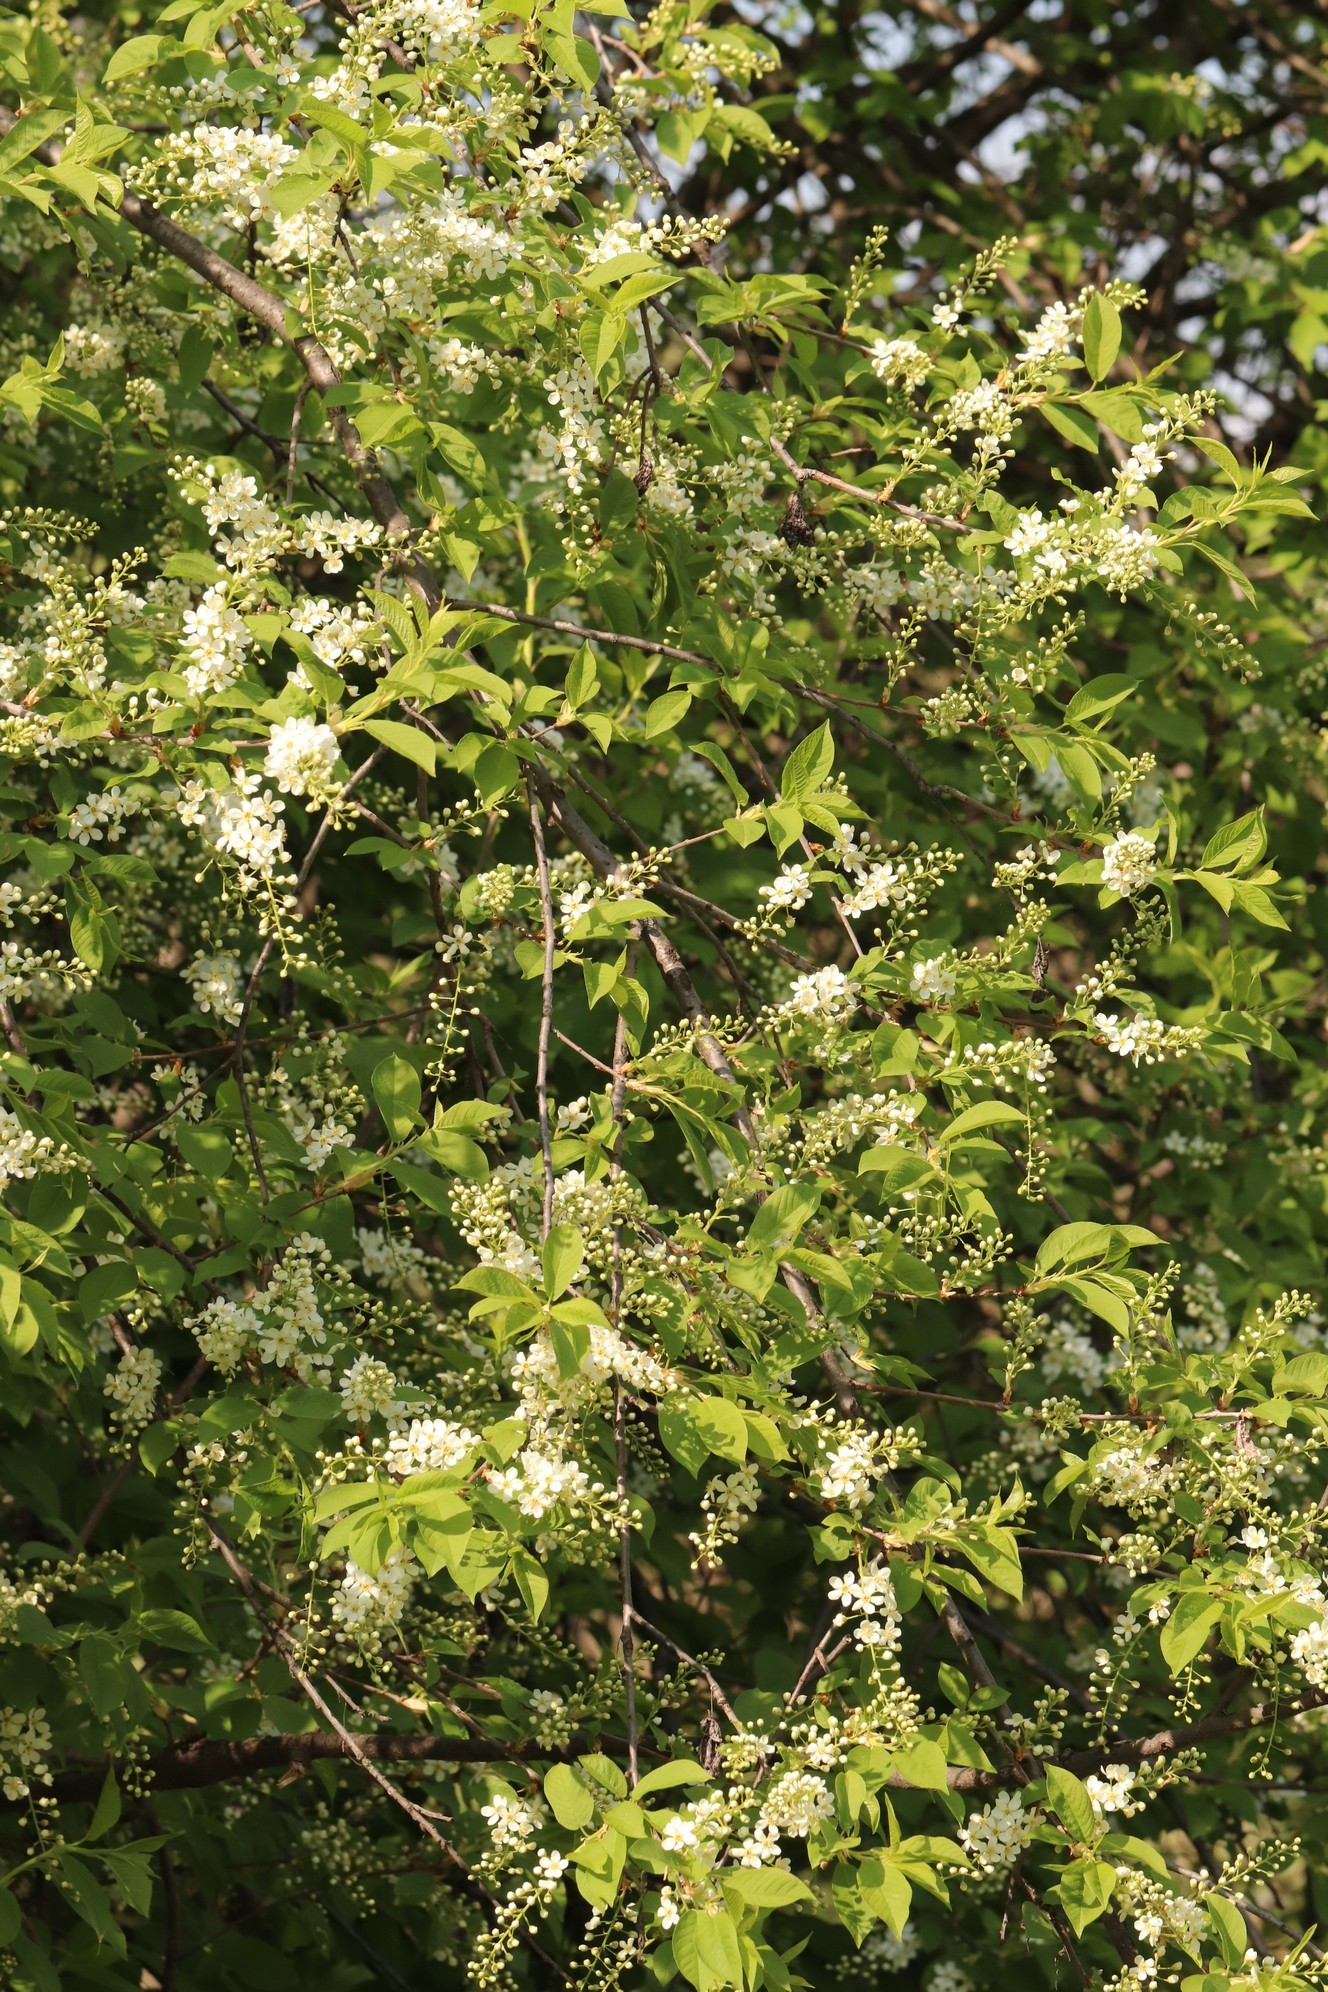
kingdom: Plantae
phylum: Tracheophyta
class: Magnoliopsida
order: Rosales
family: Rosaceae
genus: Prunus
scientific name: Prunus padus
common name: Bird cherry
